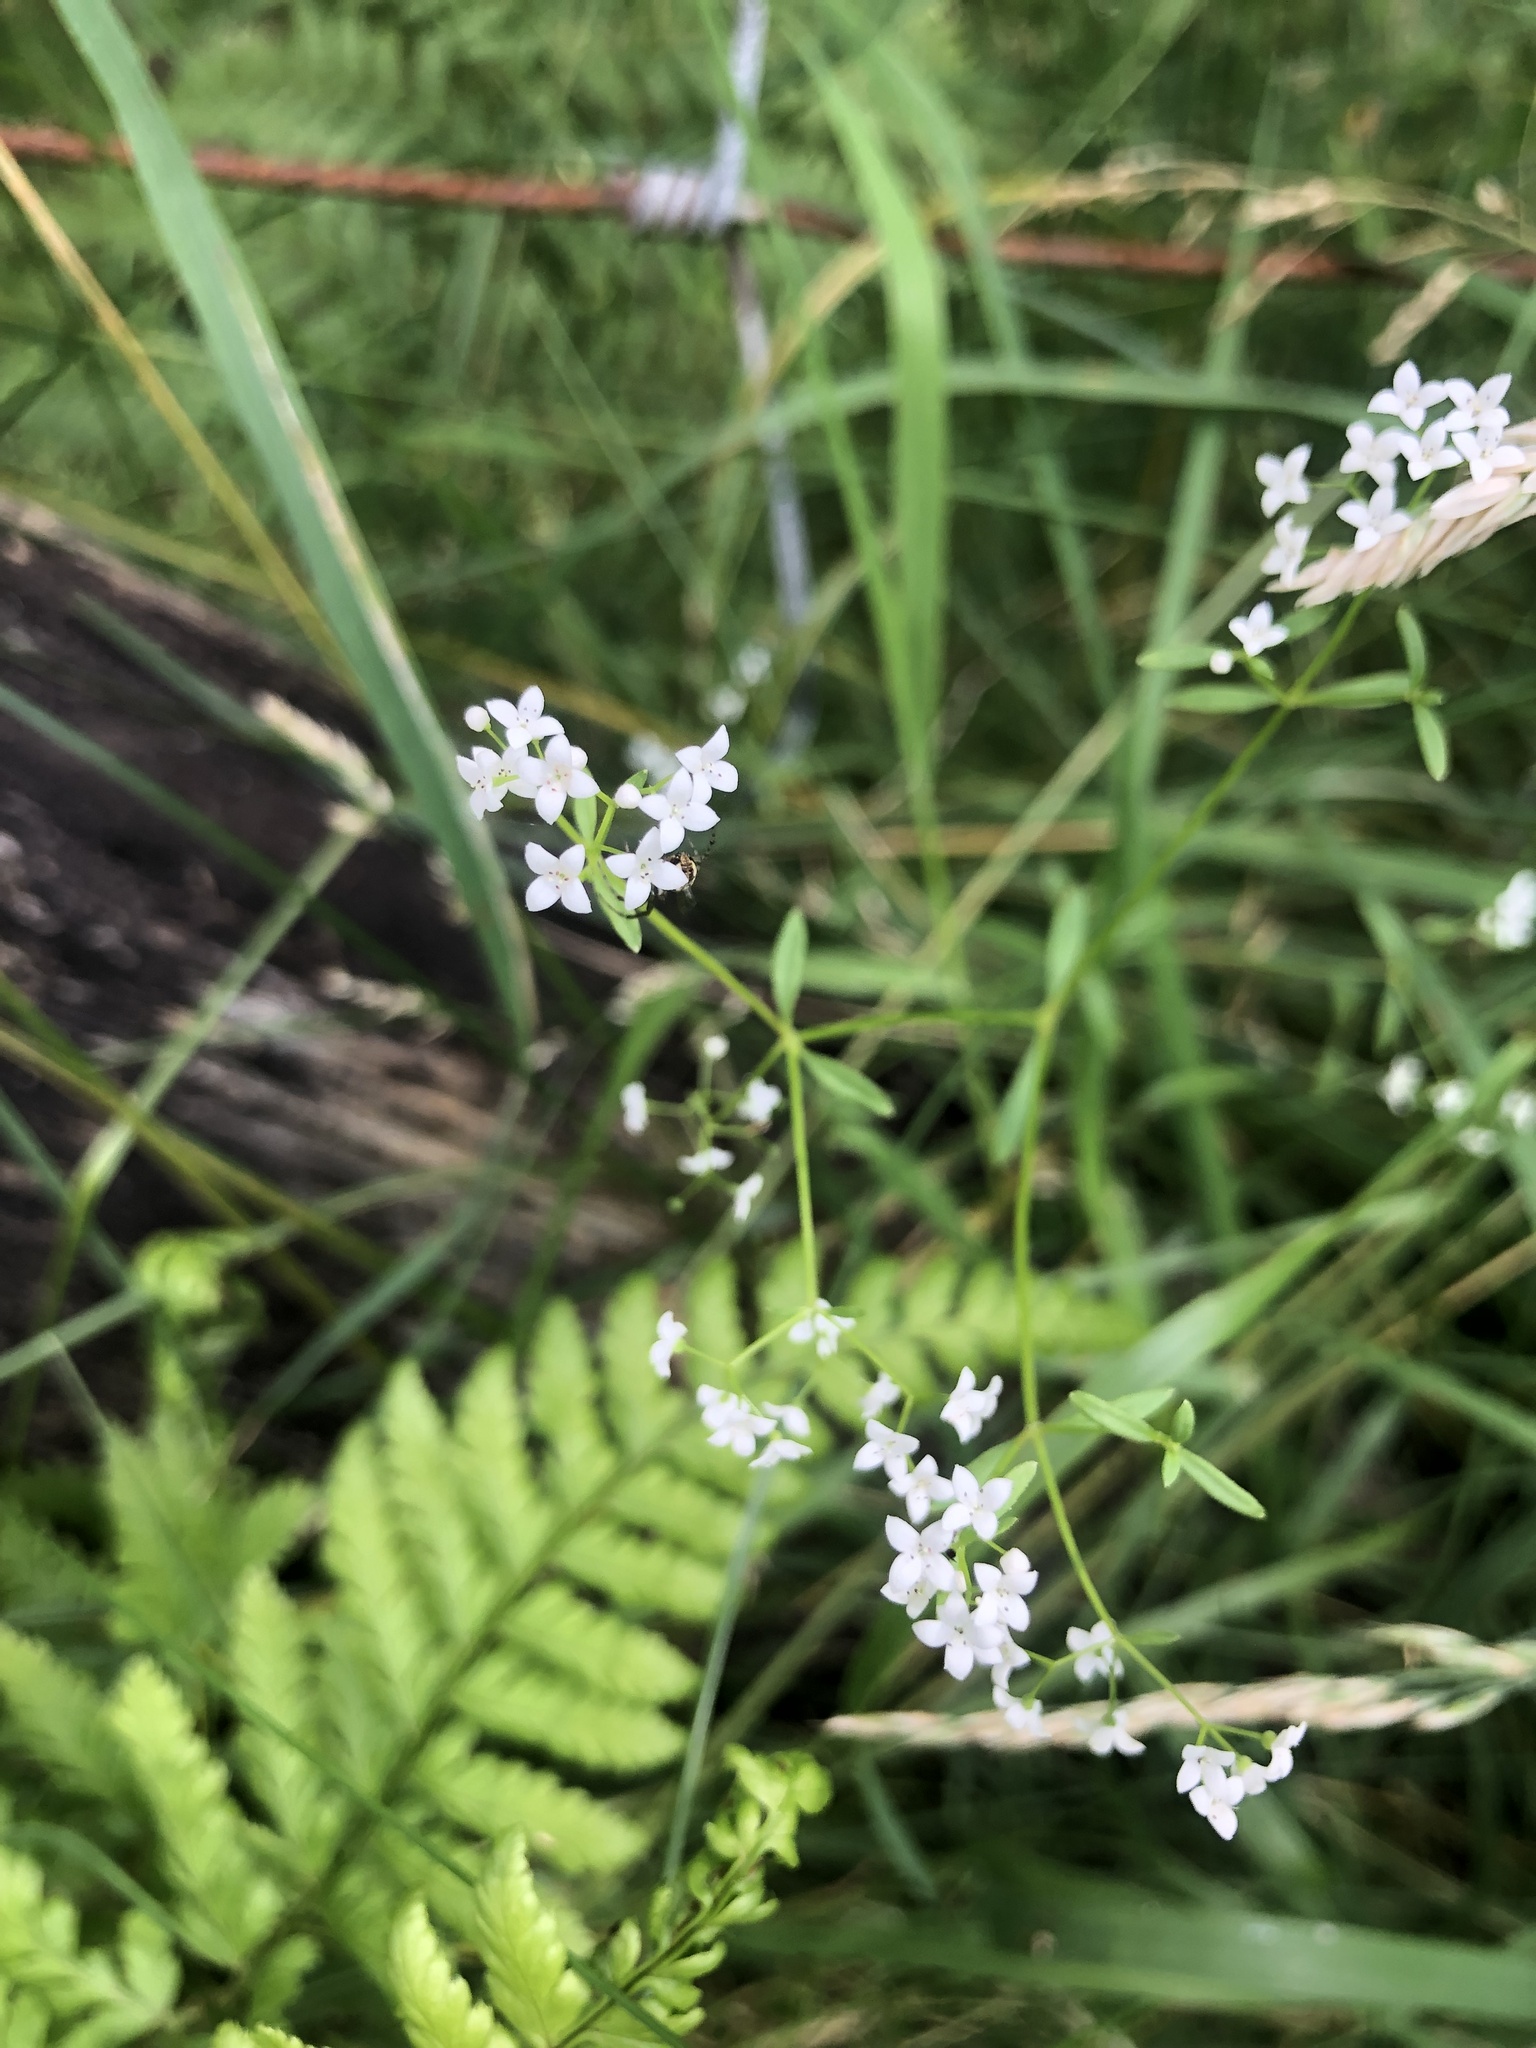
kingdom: Plantae
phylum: Tracheophyta
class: Magnoliopsida
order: Gentianales
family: Rubiaceae
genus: Galium
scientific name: Galium palustre
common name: Common marsh-bedstraw
